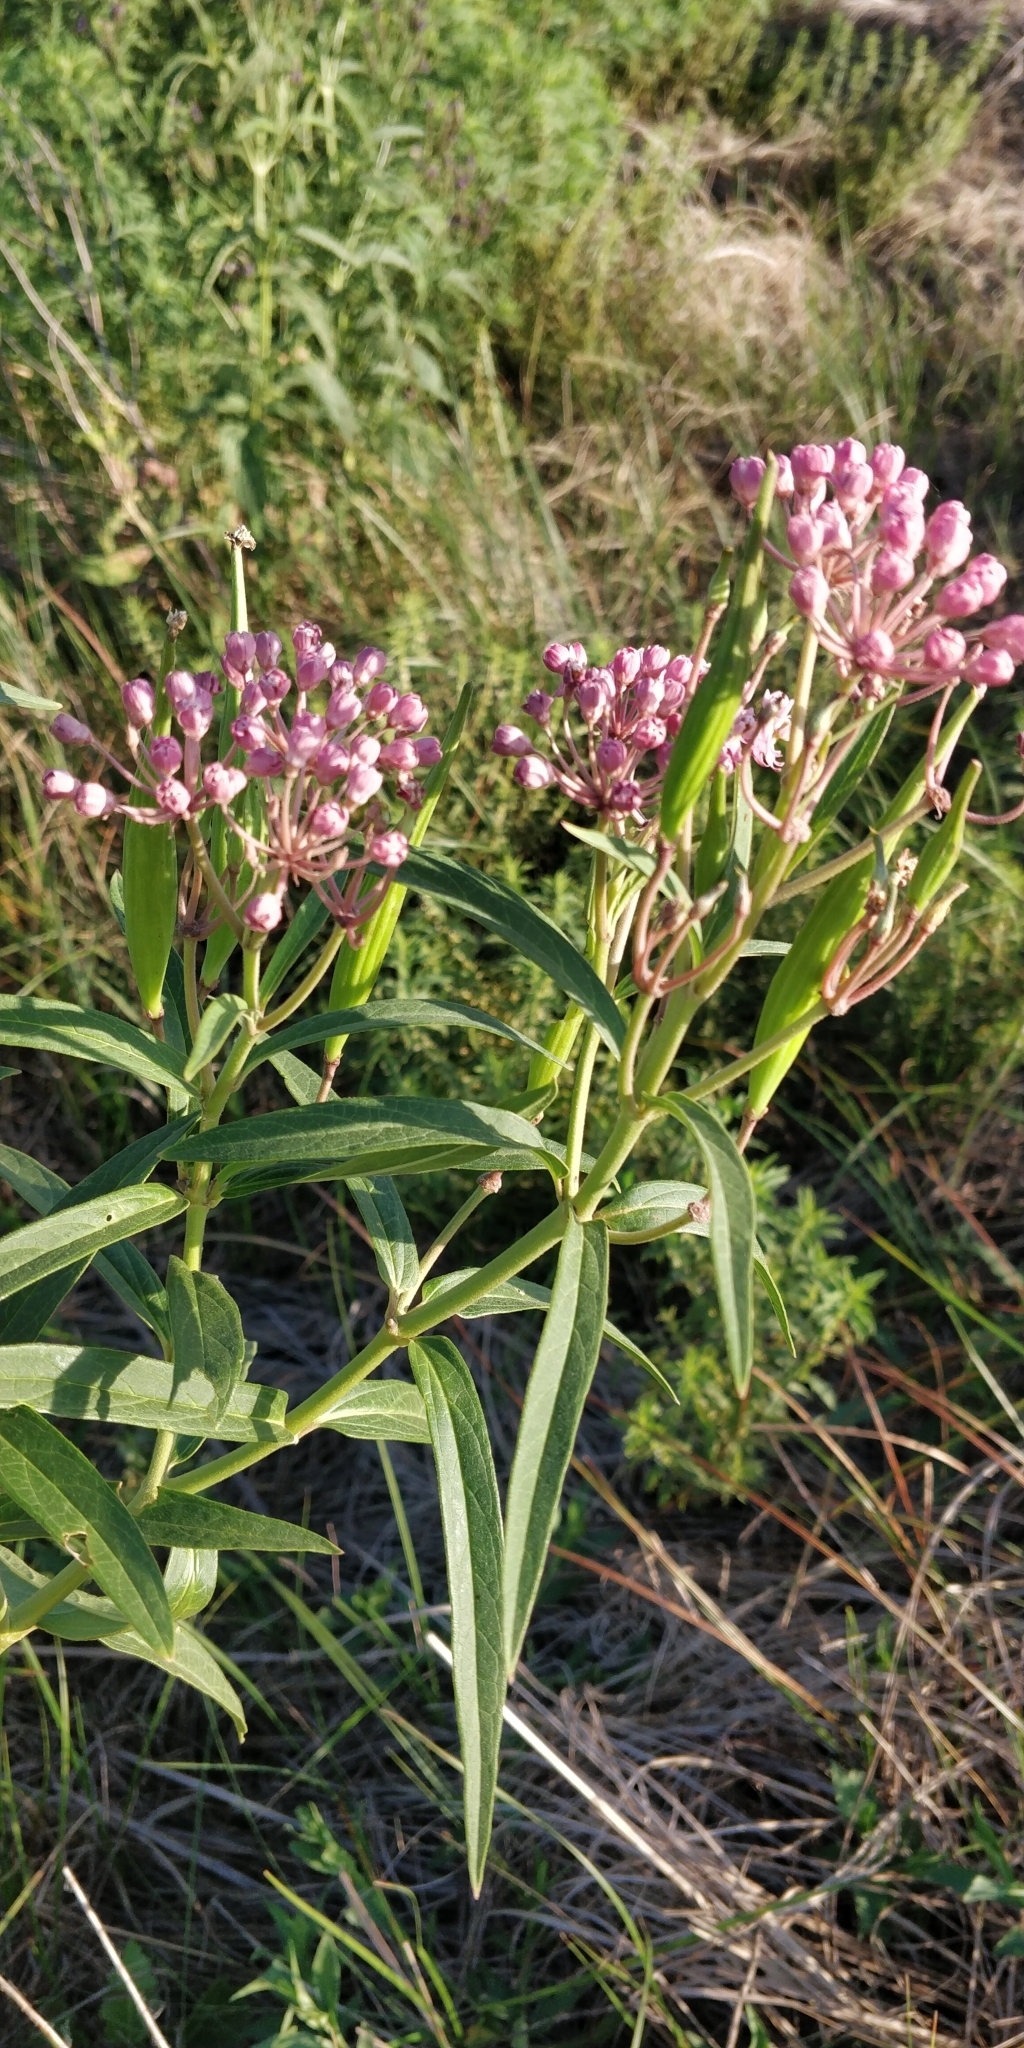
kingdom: Plantae
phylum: Tracheophyta
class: Magnoliopsida
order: Gentianales
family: Apocynaceae
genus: Asclepias
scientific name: Asclepias incarnata
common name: Swamp milkweed
